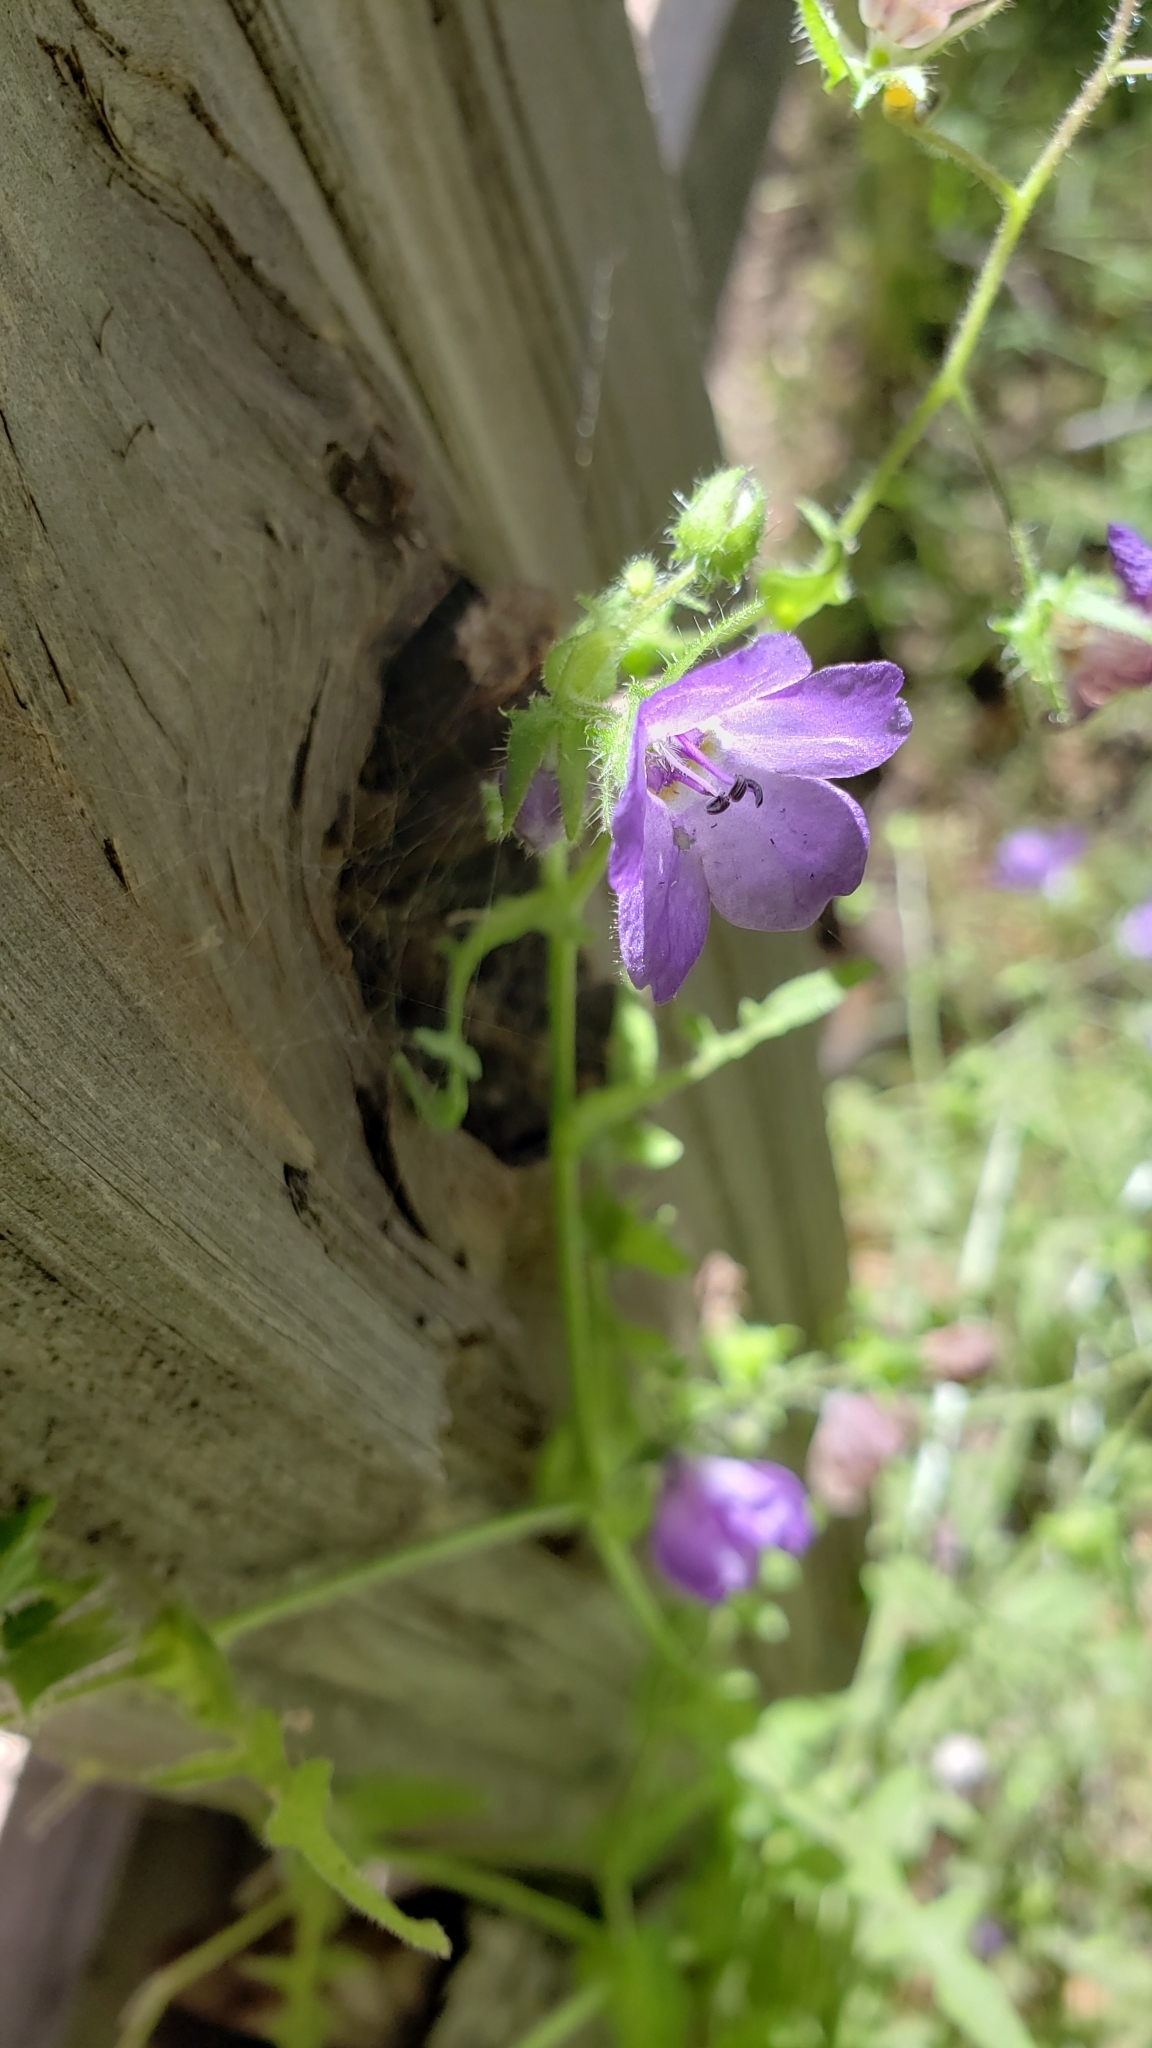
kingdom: Plantae
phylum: Tracheophyta
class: Magnoliopsida
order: Boraginales
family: Hydrophyllaceae
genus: Pholistoma
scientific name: Pholistoma auritum
